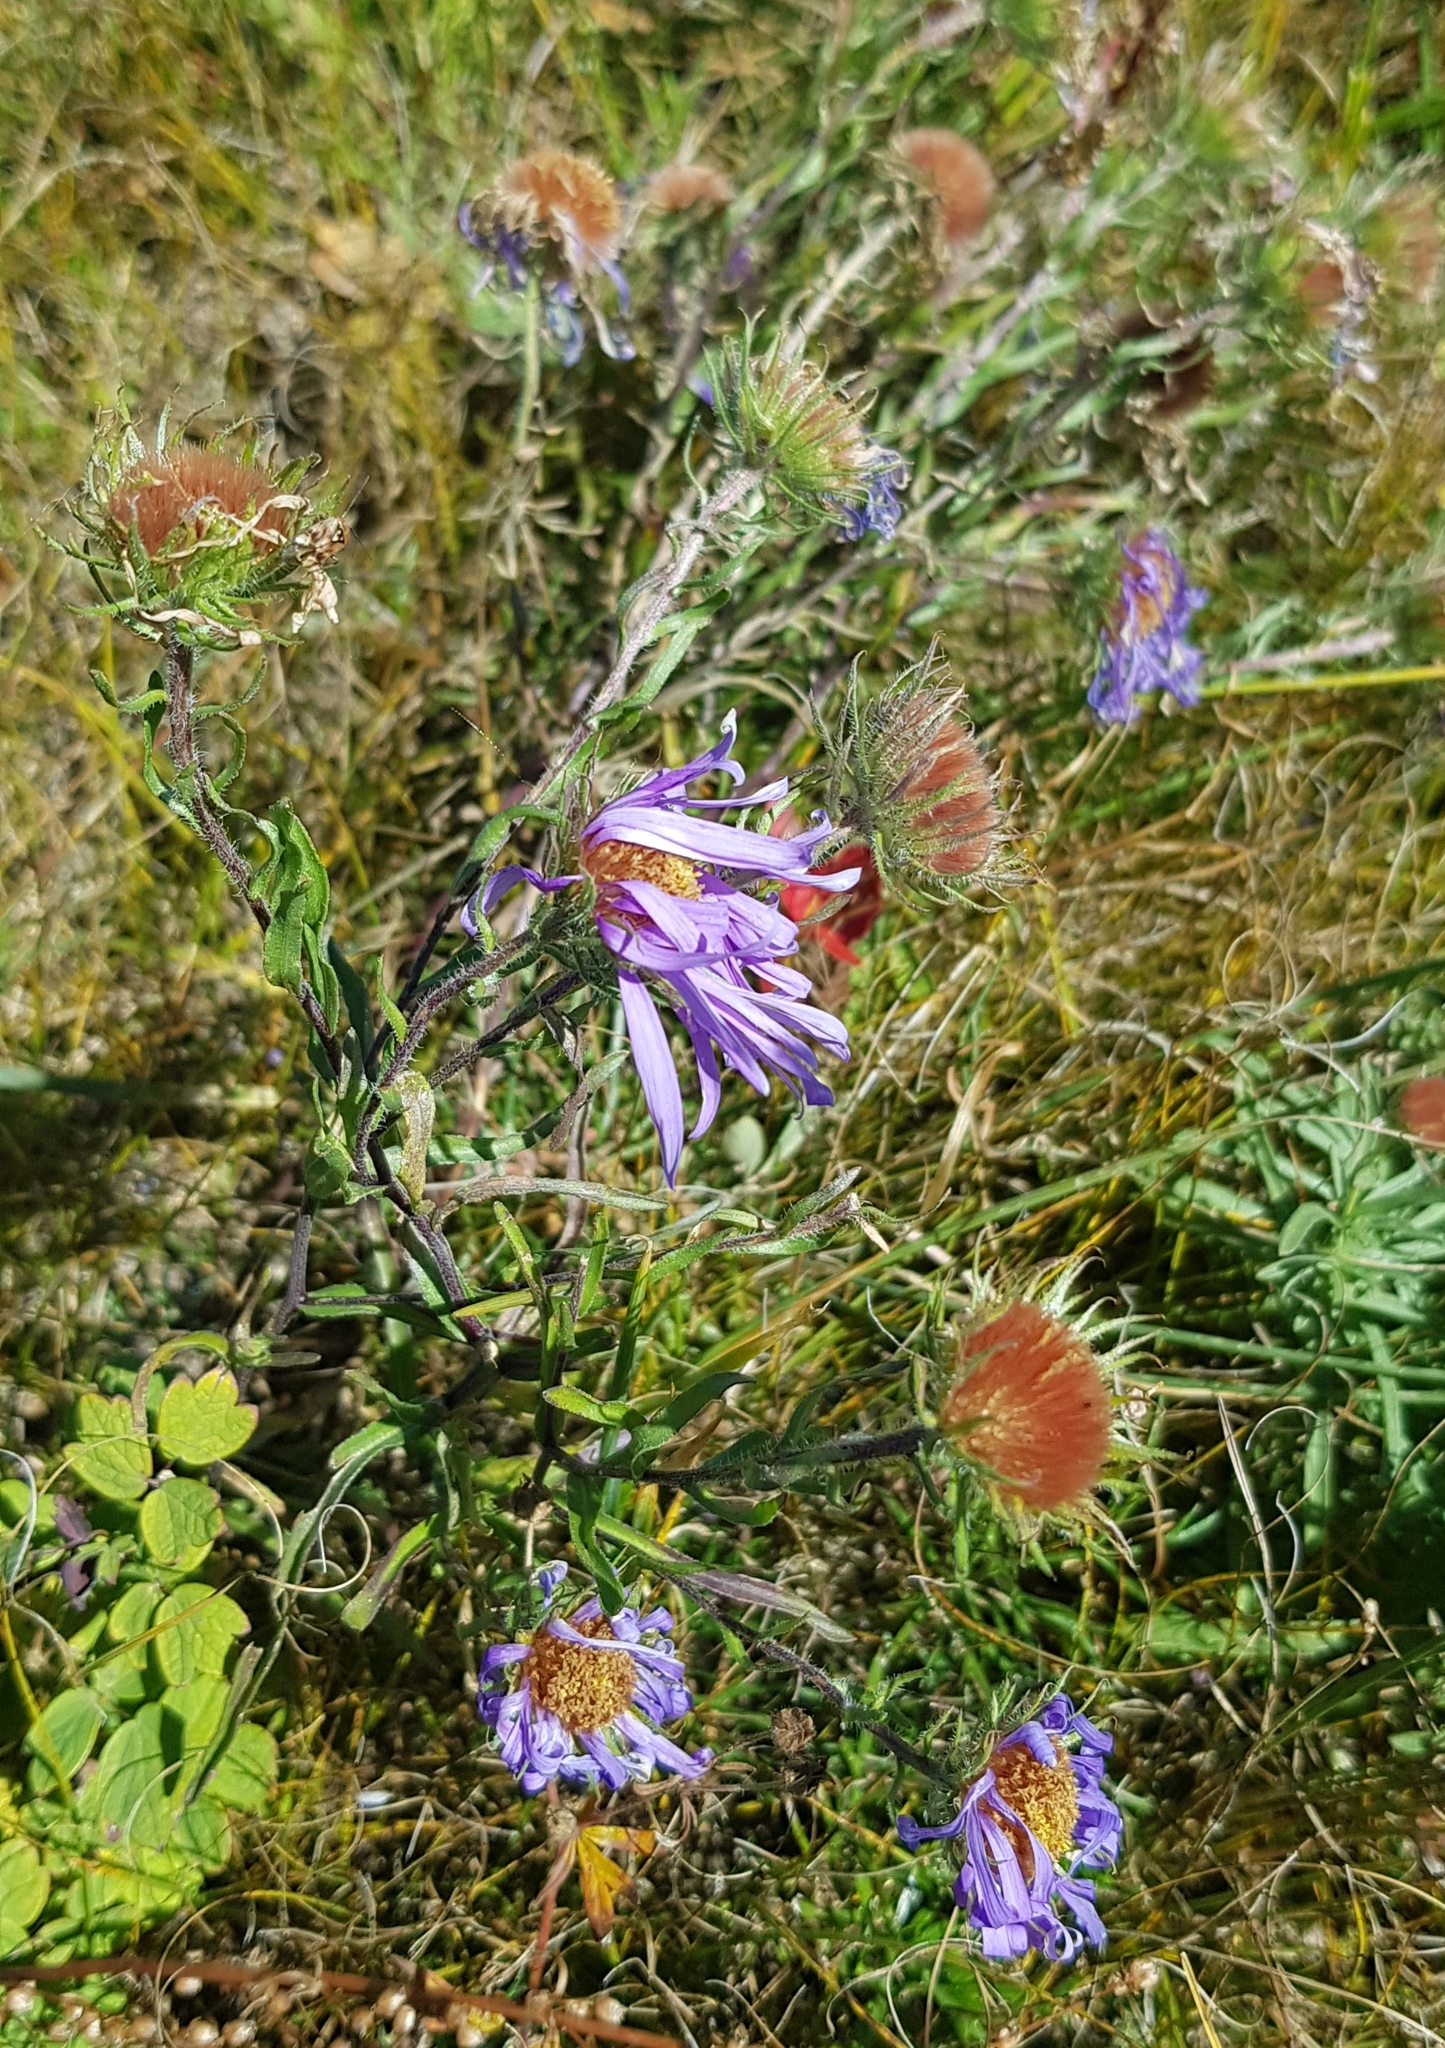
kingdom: Plantae
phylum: Tracheophyta
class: Magnoliopsida
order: Asterales
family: Asteraceae
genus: Aster
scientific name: Aster alpinus
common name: Alpine aster
